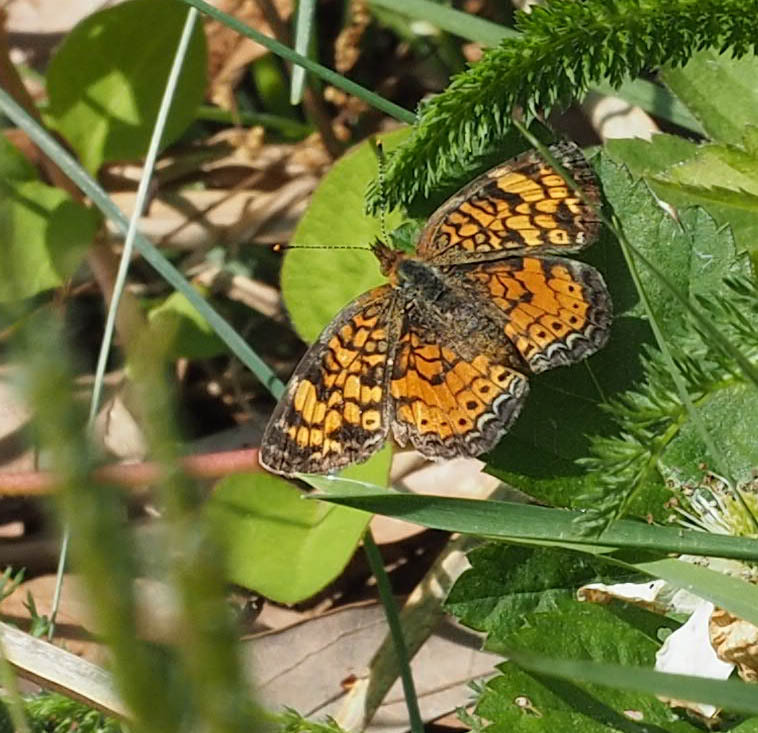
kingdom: Animalia
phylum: Arthropoda
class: Insecta
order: Lepidoptera
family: Nymphalidae
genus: Phyciodes
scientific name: Phyciodes tharos
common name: Pearl crescent
